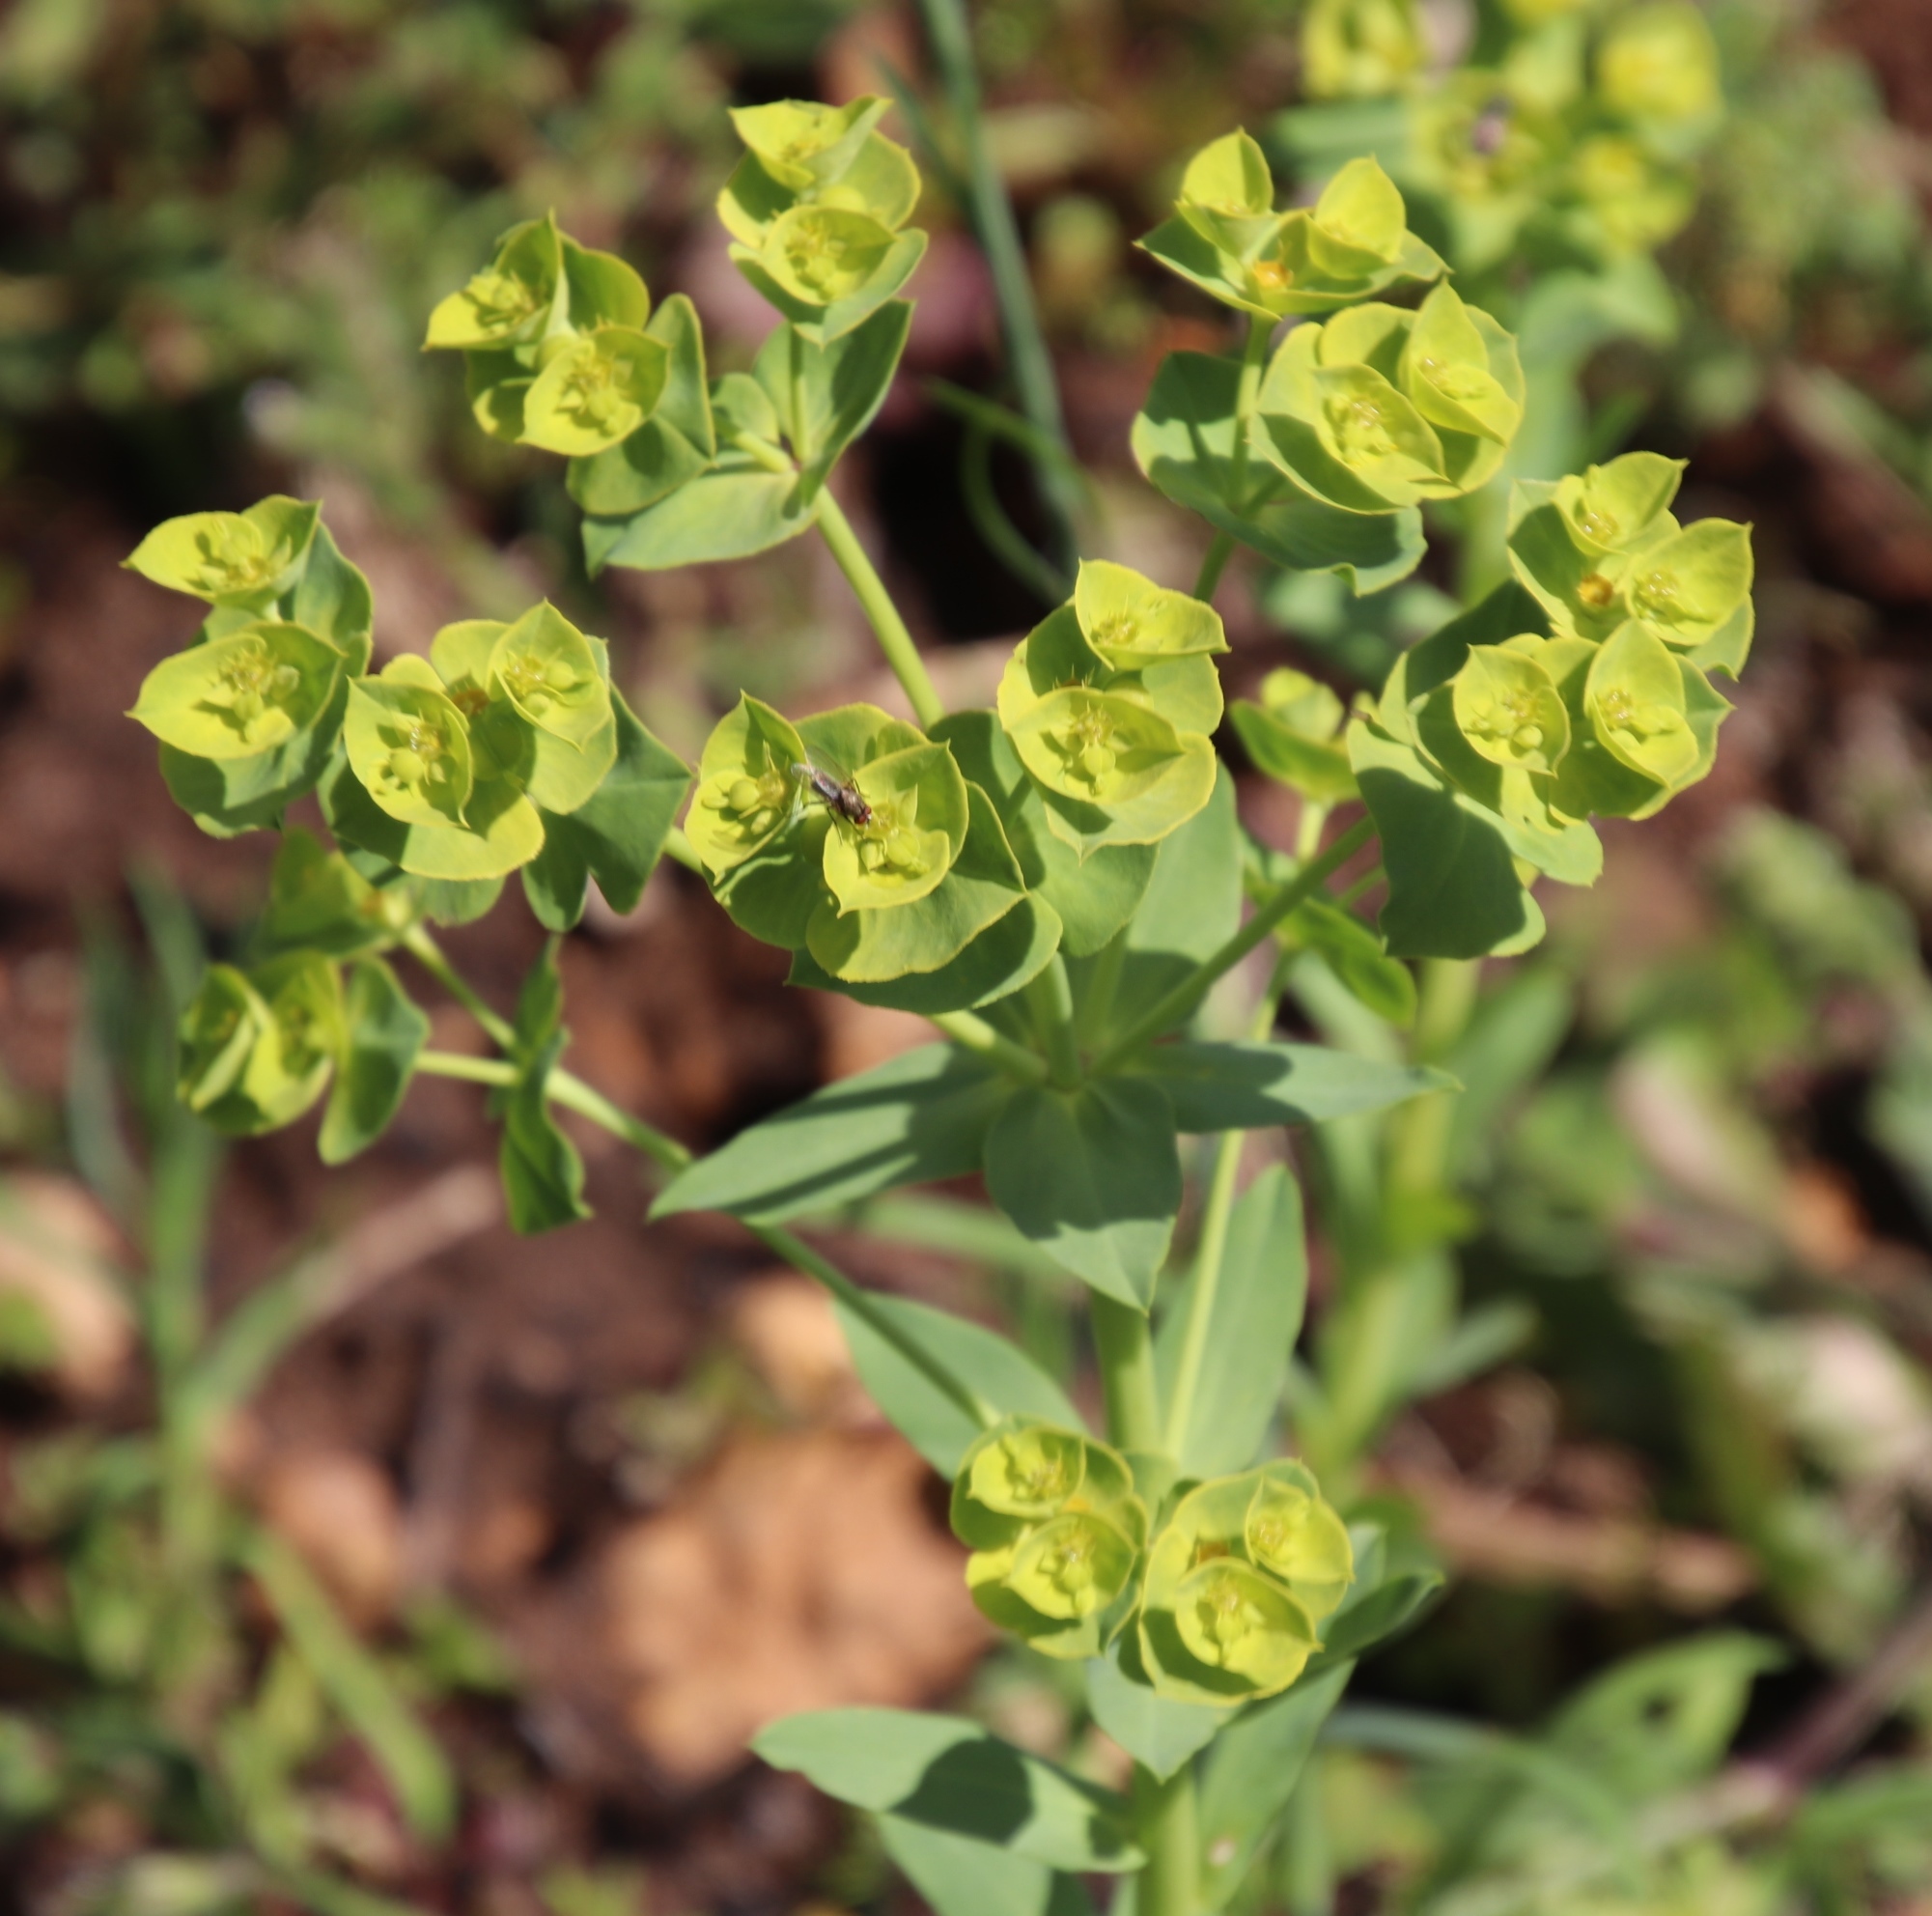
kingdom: Plantae
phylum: Tracheophyta
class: Magnoliopsida
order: Malpighiales
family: Euphorbiaceae
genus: Euphorbia
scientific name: Euphorbia terracina
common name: Geraldton carnation weed
